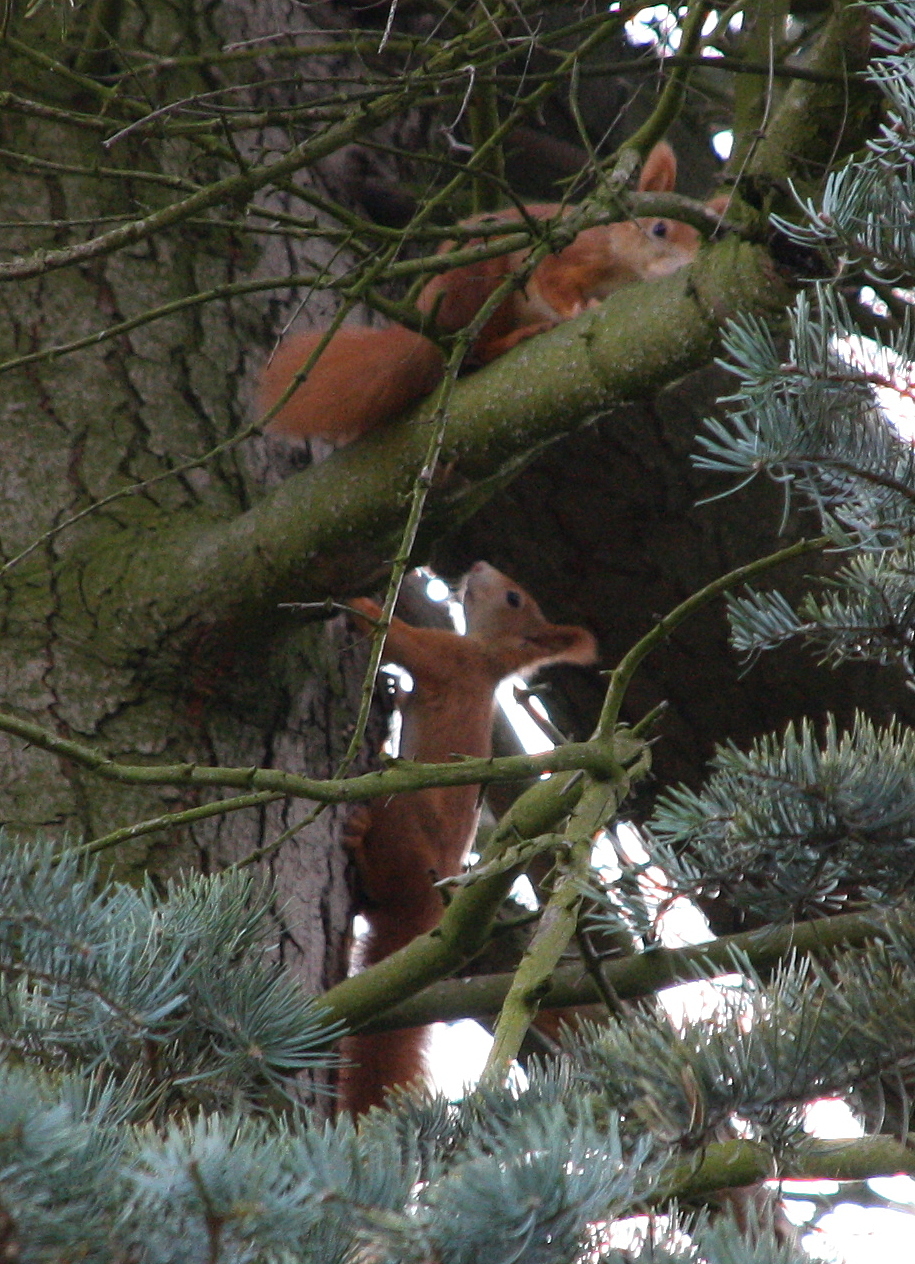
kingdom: Animalia
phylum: Chordata
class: Mammalia
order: Rodentia
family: Sciuridae
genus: Sciurus
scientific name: Sciurus vulgaris
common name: Eurasian red squirrel
